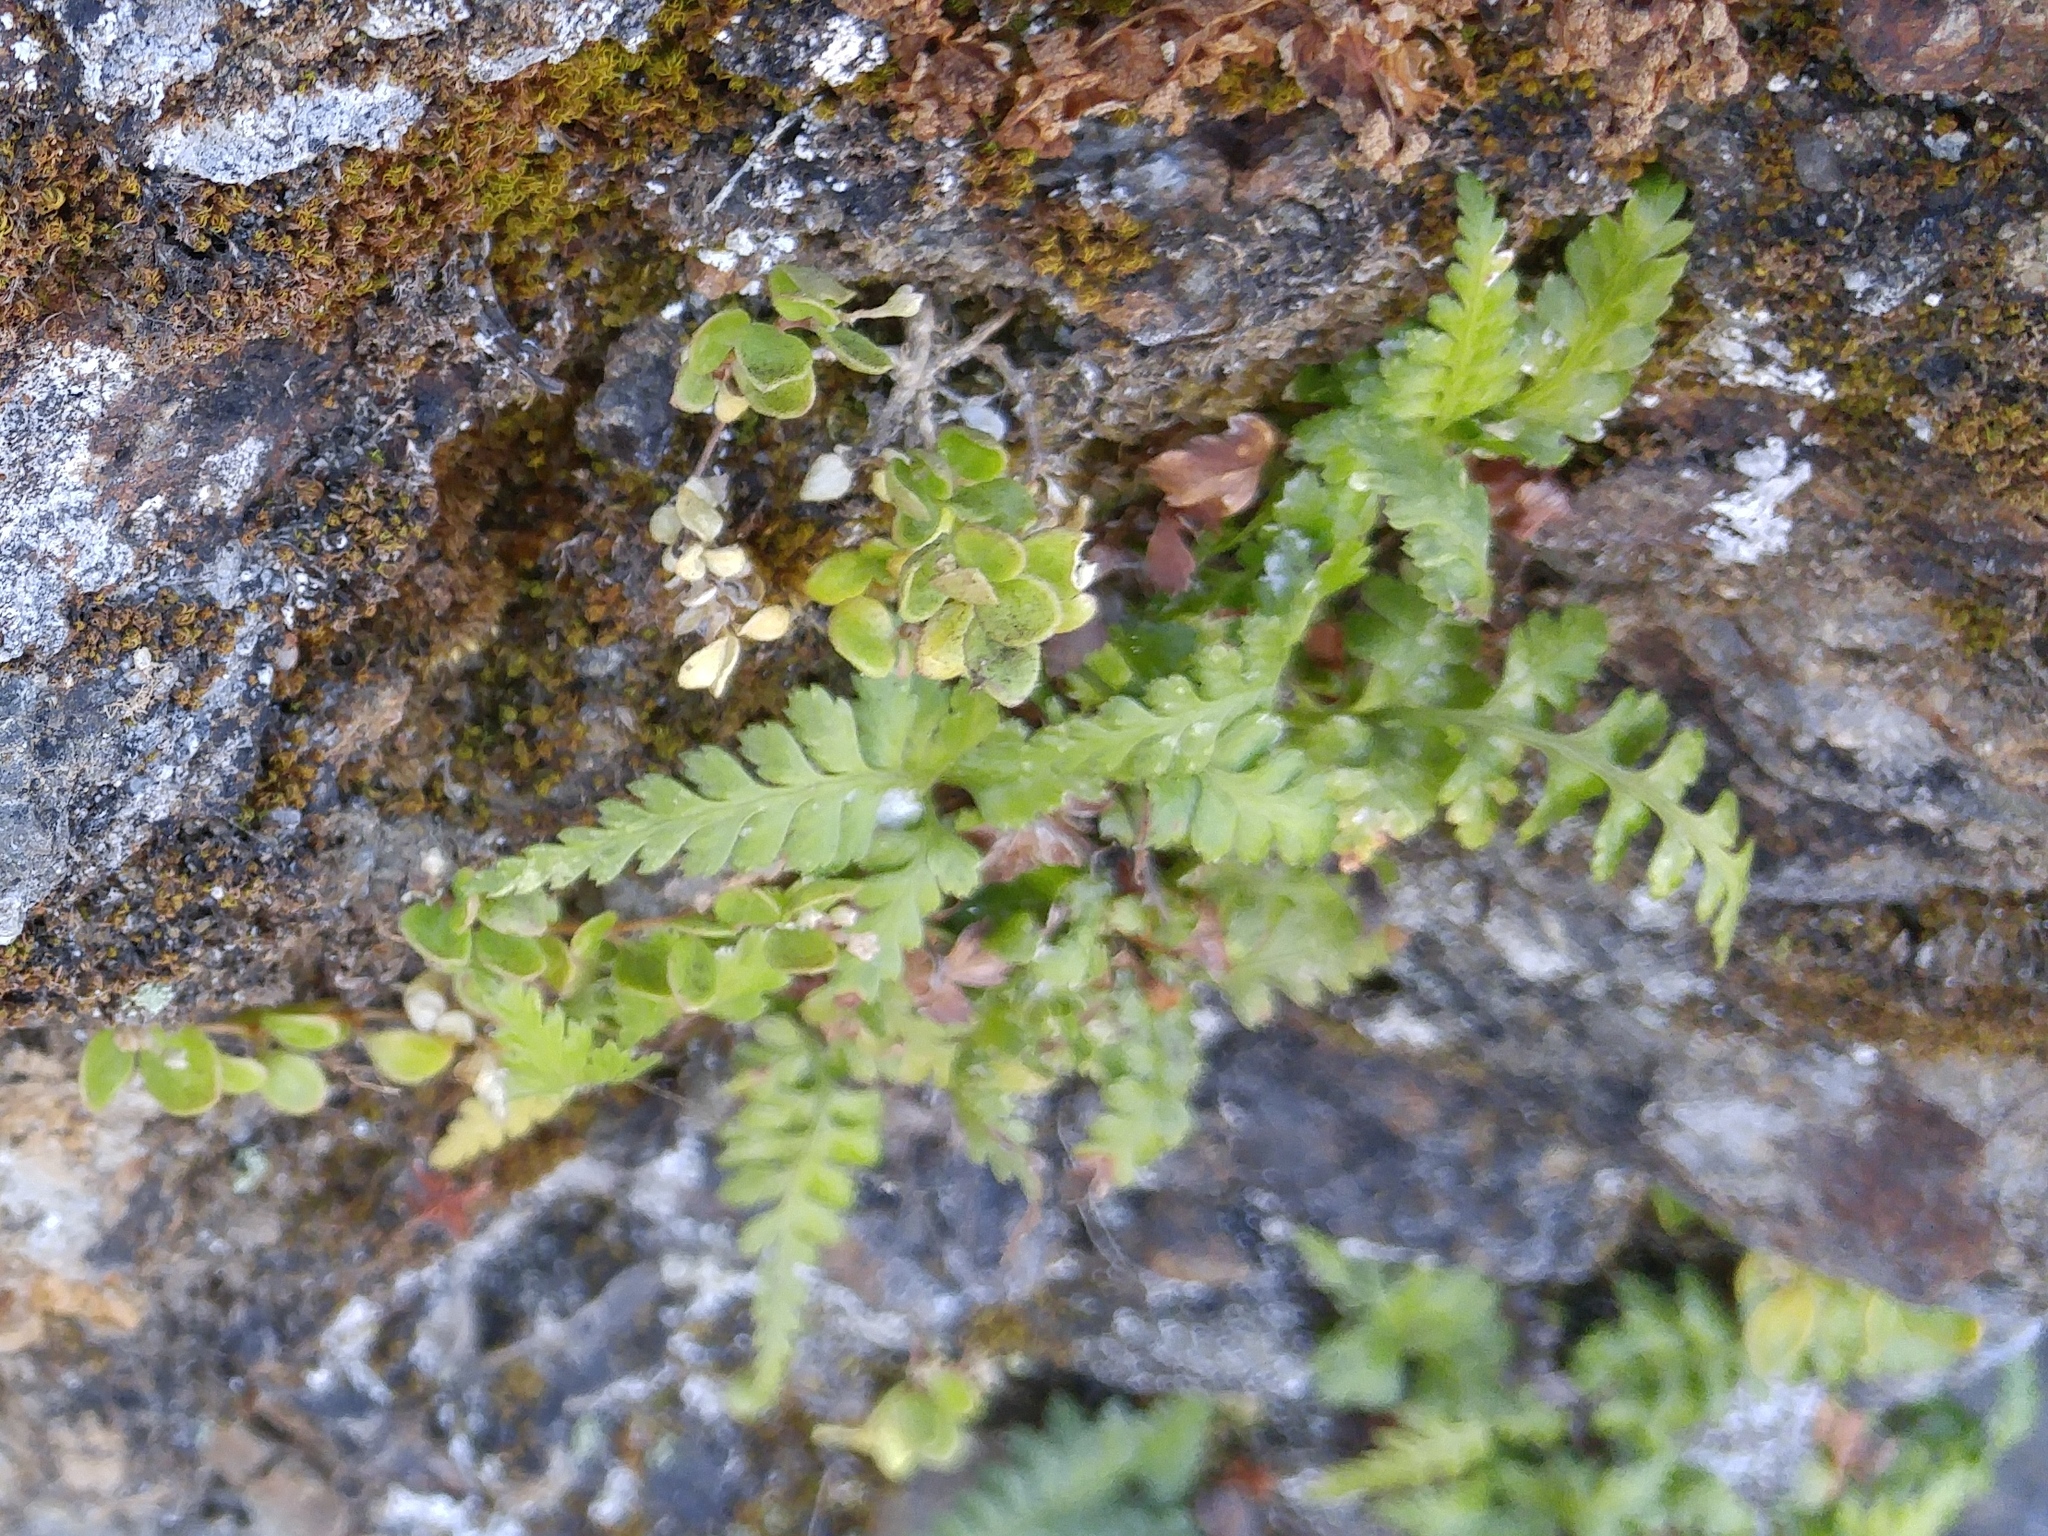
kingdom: Plantae
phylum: Tracheophyta
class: Polypodiopsida
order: Polypodiales
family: Aspleniaceae
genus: Asplenium
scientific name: Asplenium onopteris
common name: Irish spleenwort
